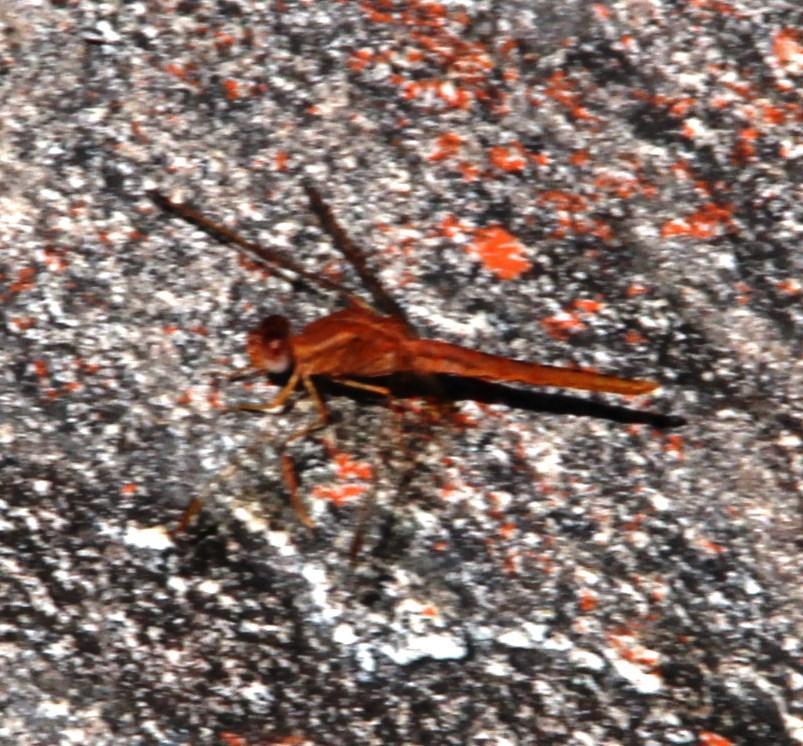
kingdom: Animalia
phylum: Arthropoda
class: Insecta
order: Odonata
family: Libellulidae
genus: Crocothemis
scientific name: Crocothemis sanguinolenta
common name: Little scarlet
